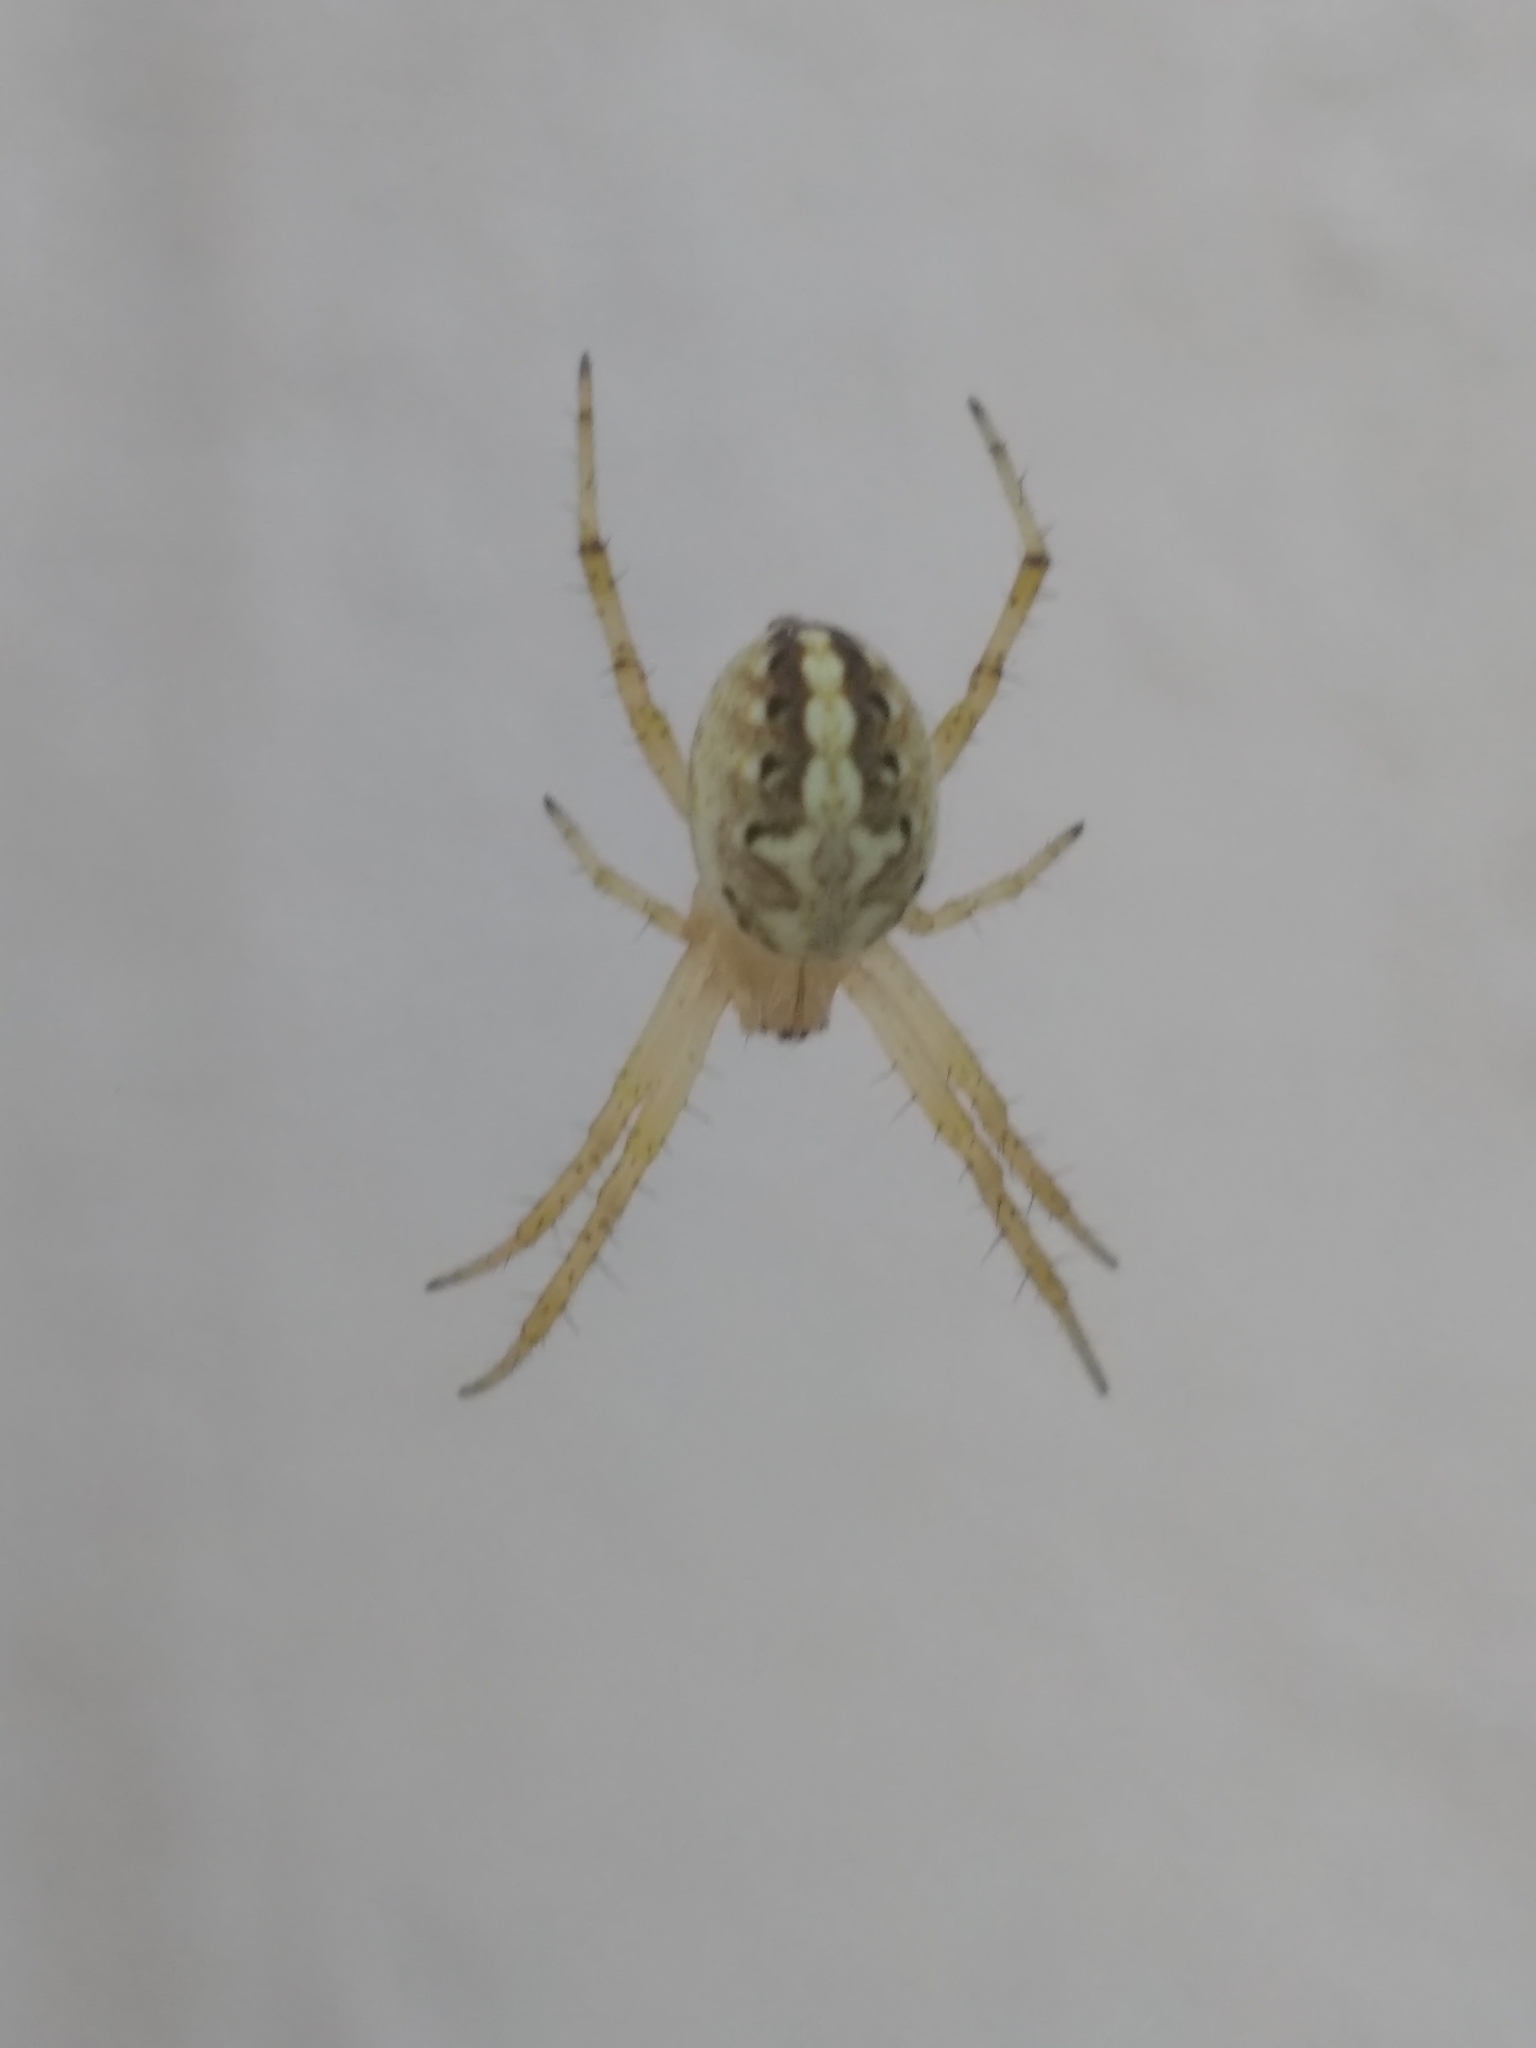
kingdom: Animalia
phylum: Arthropoda
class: Arachnida
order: Araneae
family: Araneidae
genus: Neoscona
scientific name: Neoscona oaxacensis
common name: Orb weavers
